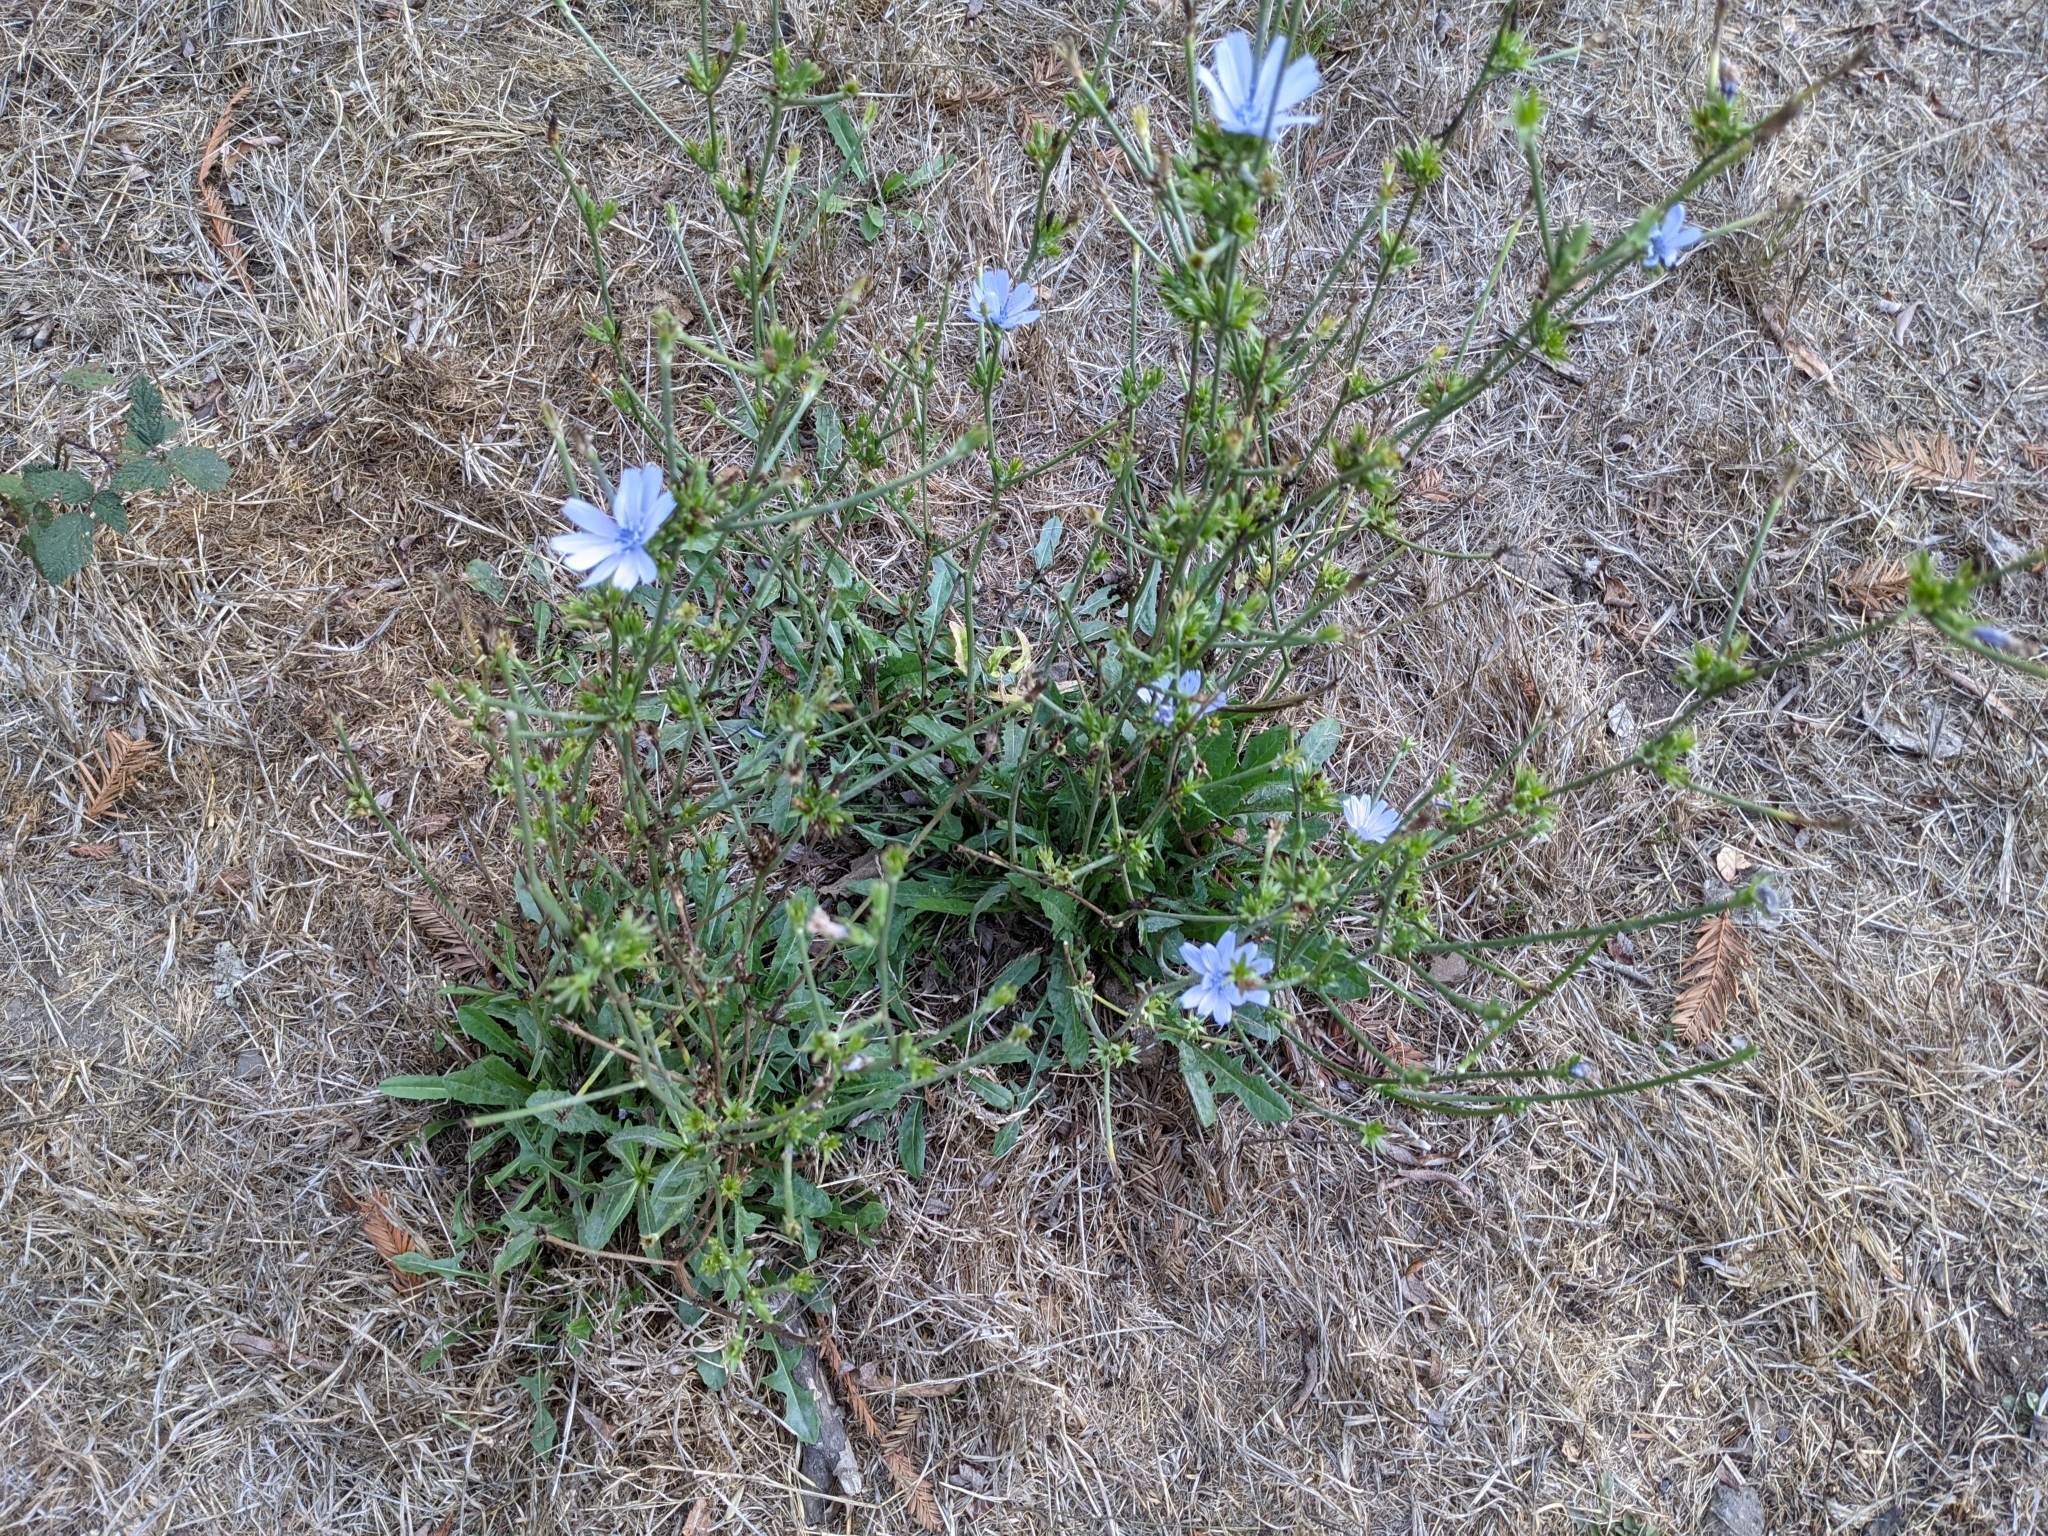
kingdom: Plantae
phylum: Tracheophyta
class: Magnoliopsida
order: Asterales
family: Asteraceae
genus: Cichorium
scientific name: Cichorium intybus
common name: Chicory
